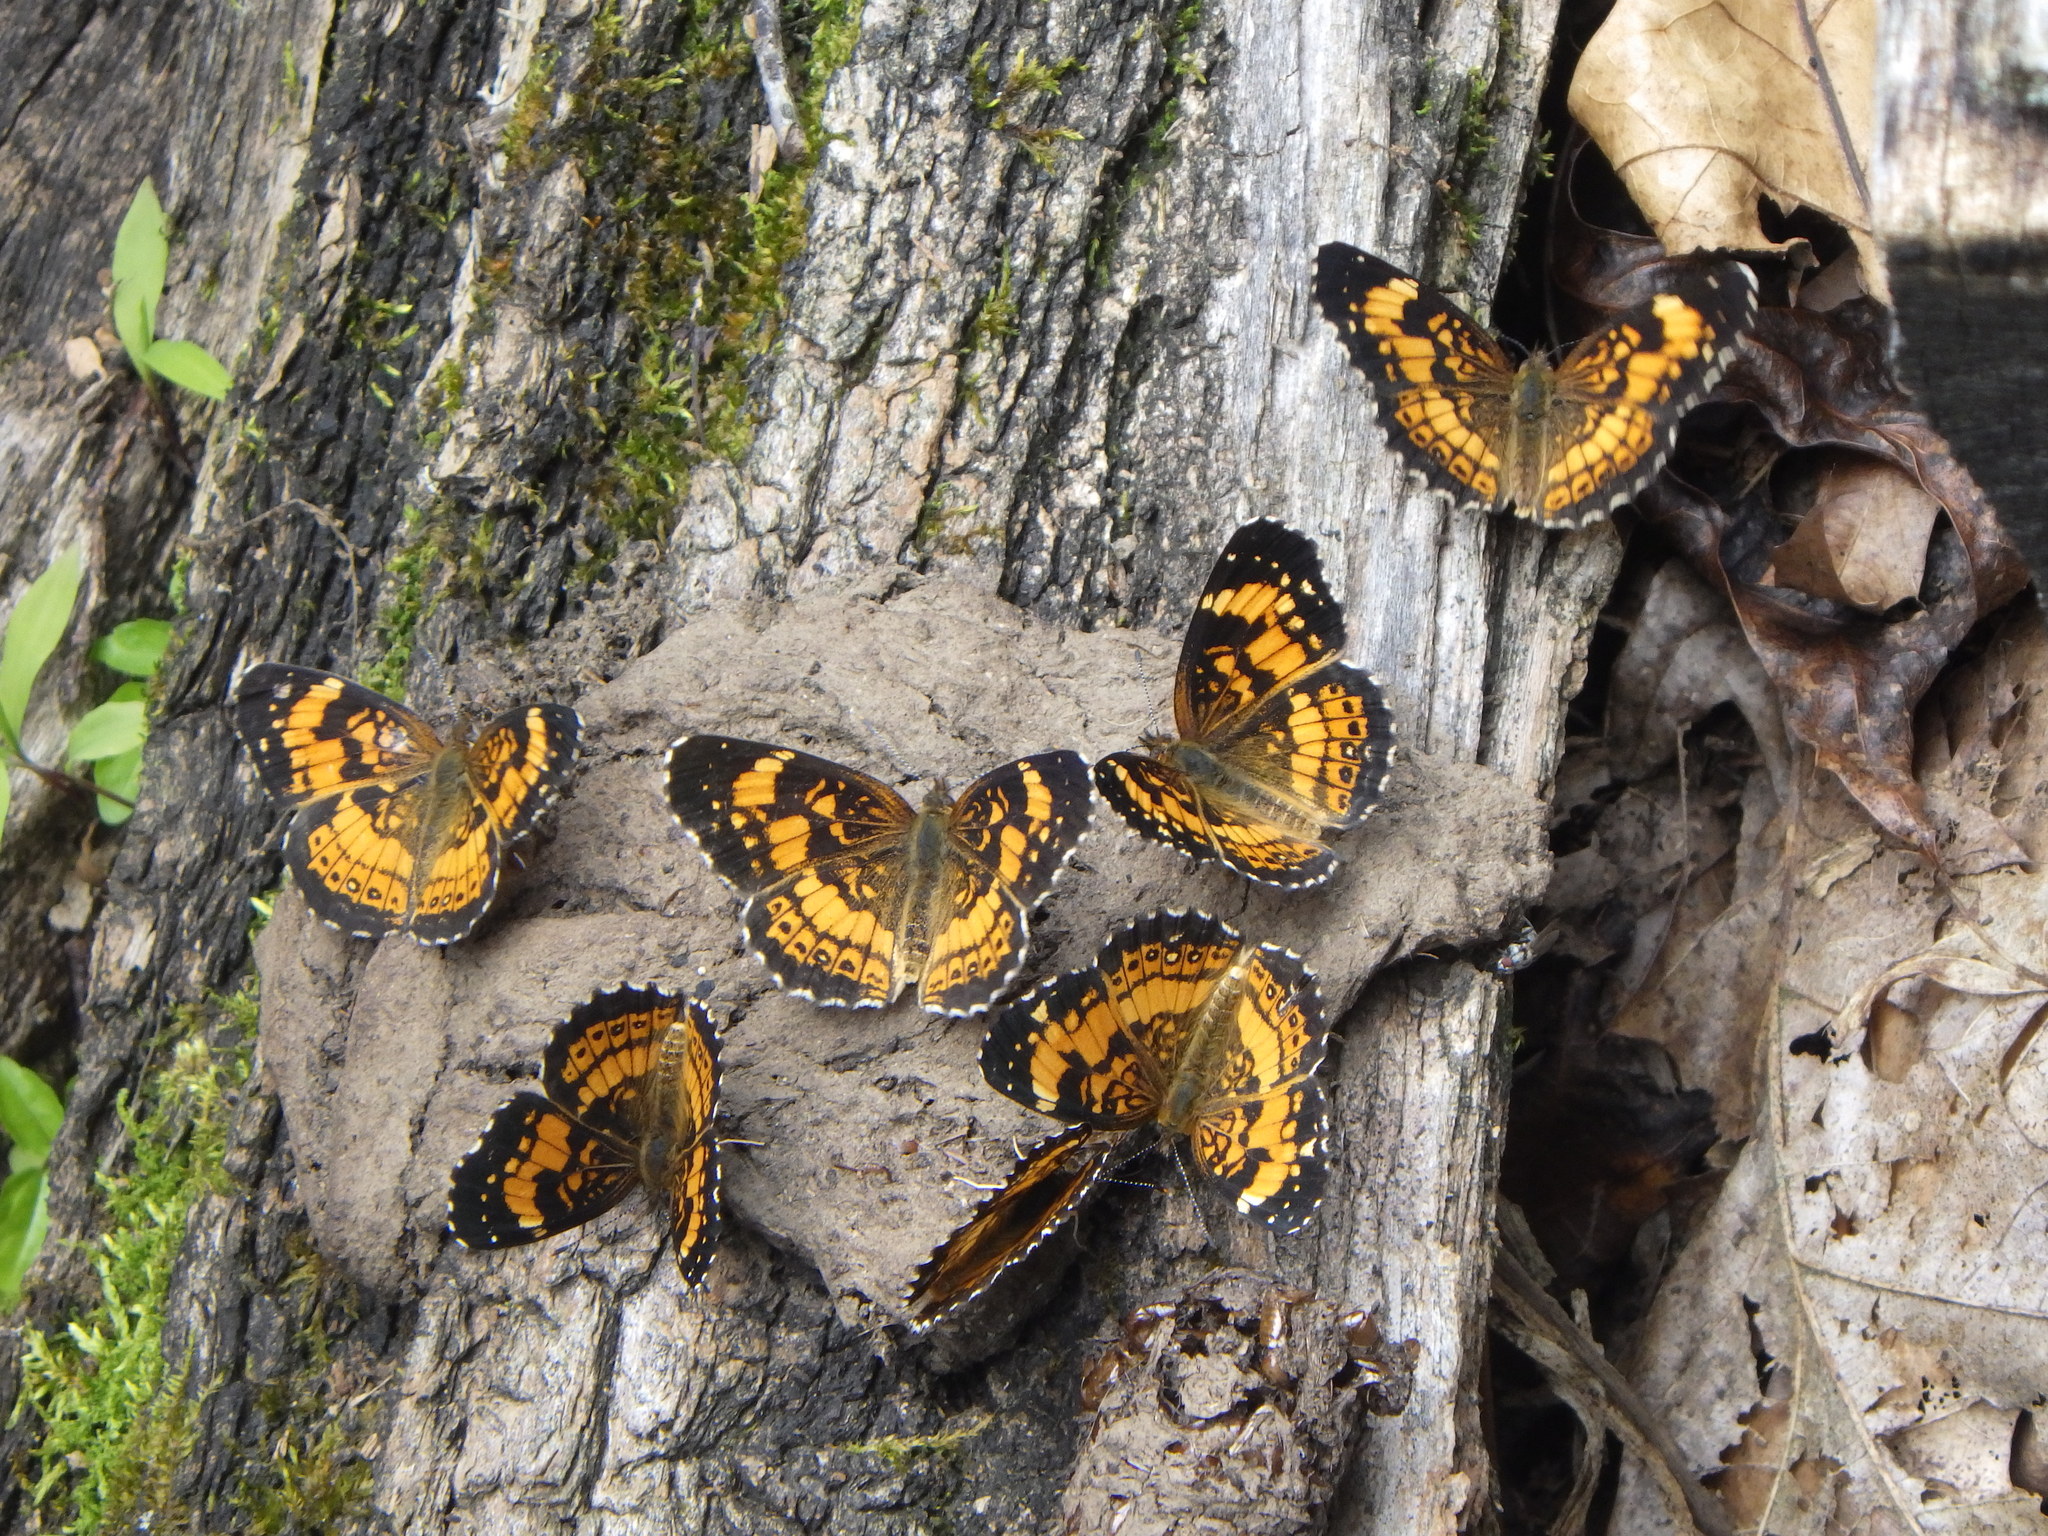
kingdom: Animalia
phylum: Arthropoda
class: Insecta
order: Lepidoptera
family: Nymphalidae
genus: Chlosyne
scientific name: Chlosyne nycteis
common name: Silvery checkerspot
